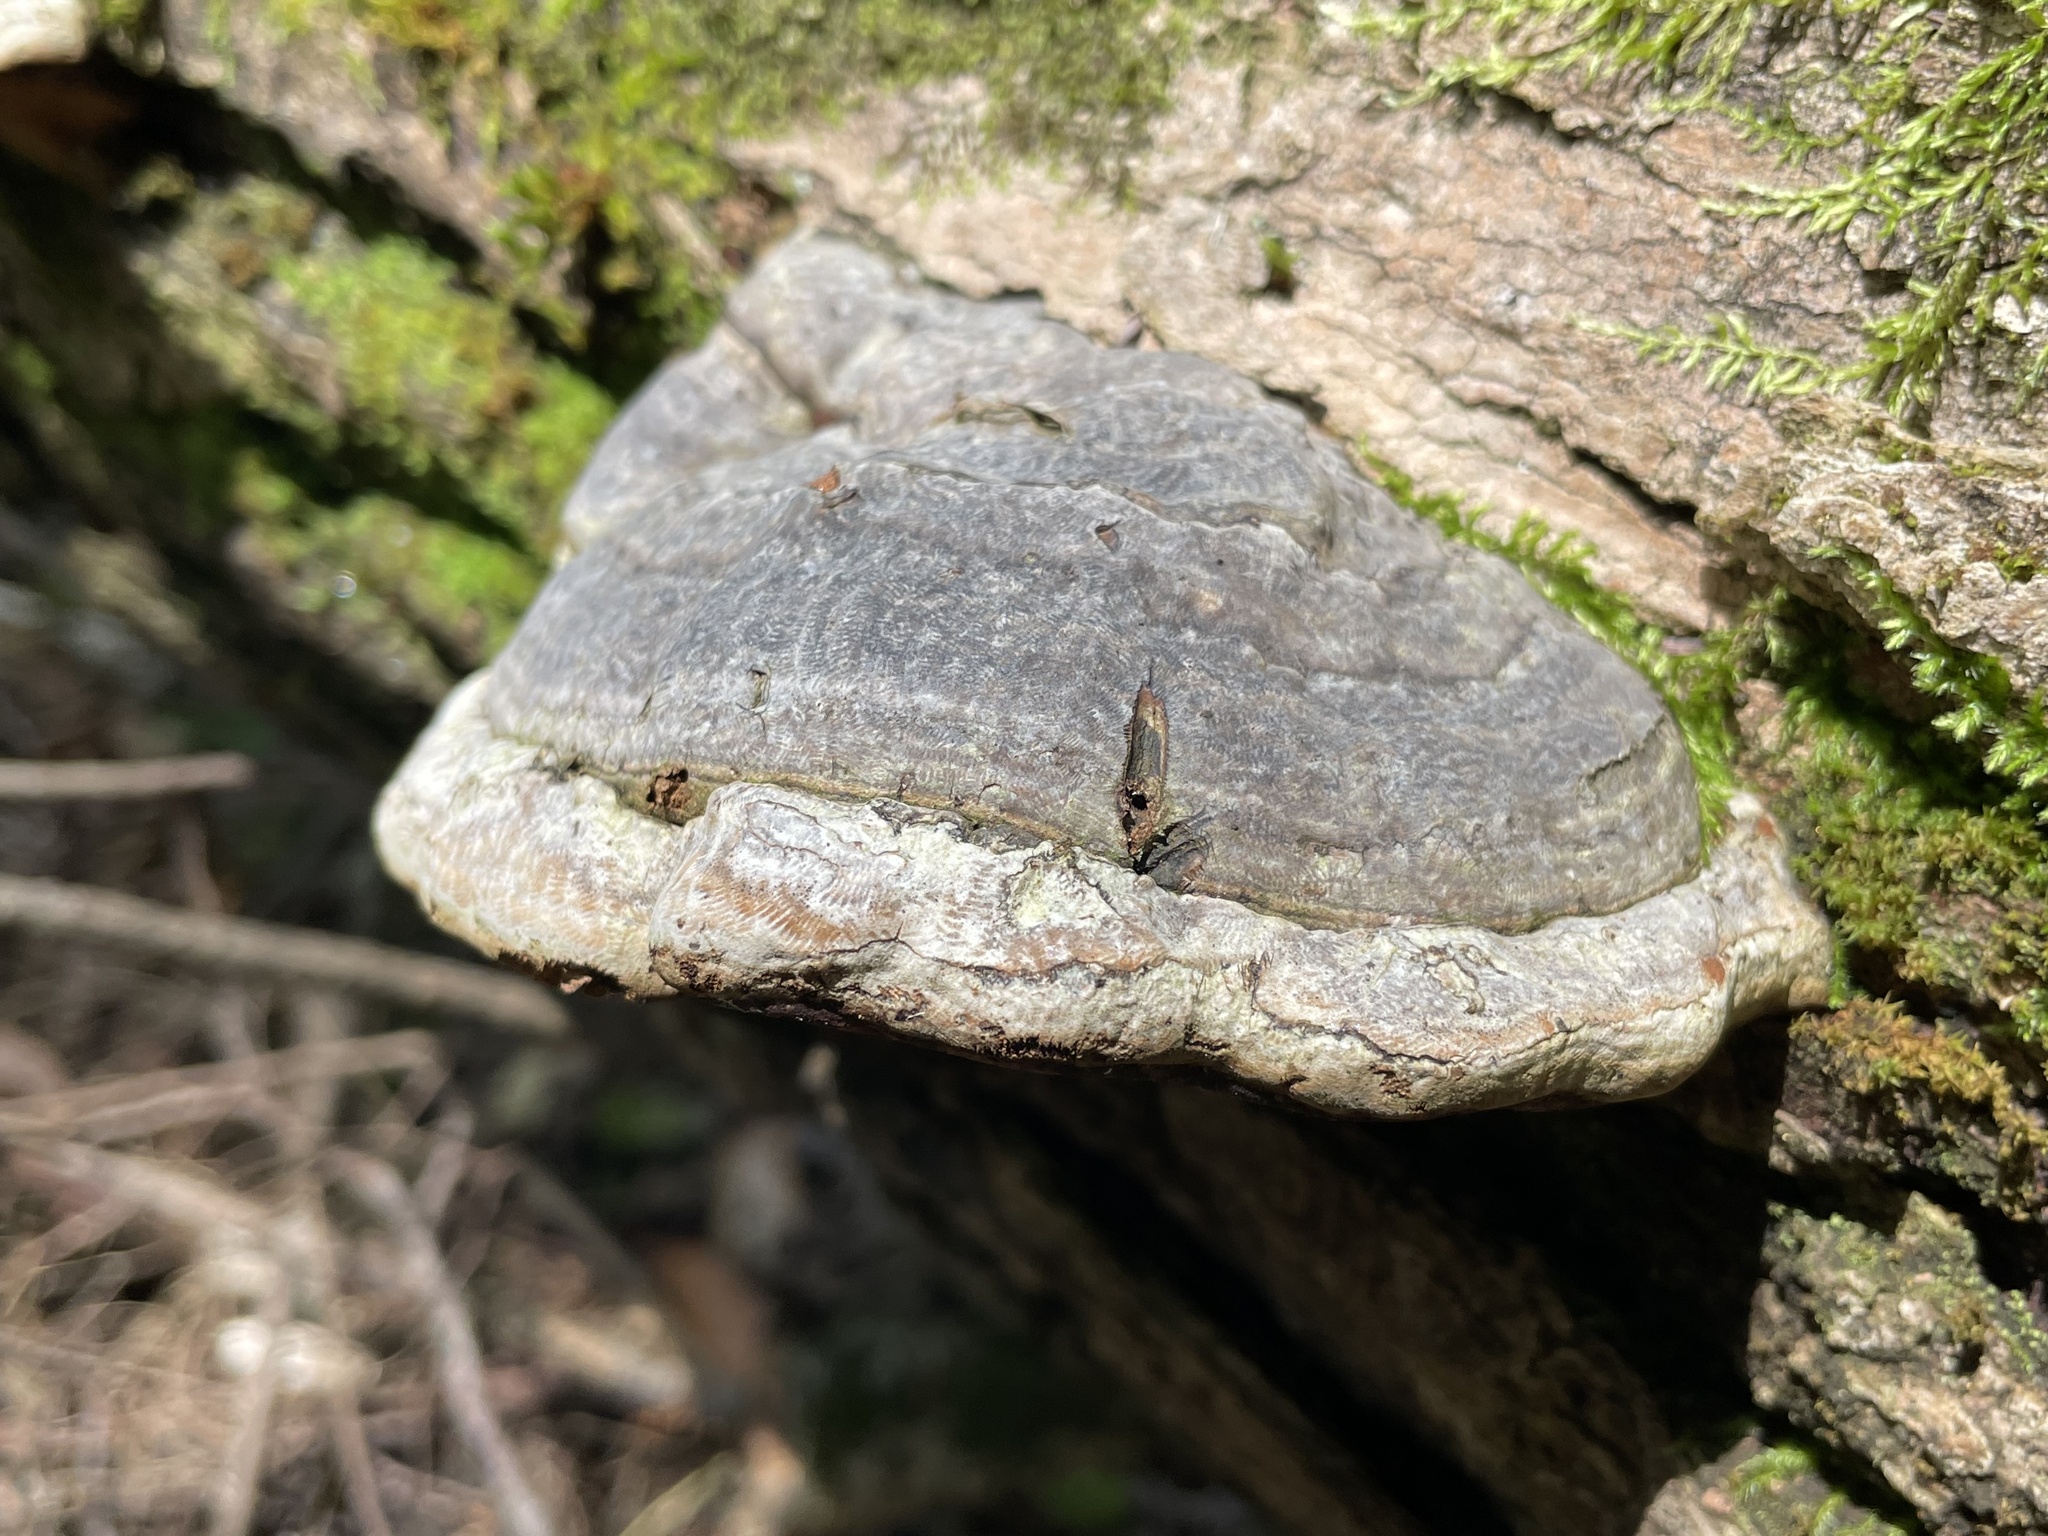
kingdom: Fungi
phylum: Basidiomycota
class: Agaricomycetes
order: Polyporales
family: Polyporaceae
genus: Fomes
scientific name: Fomes fomentarius
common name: Hoof fungus
